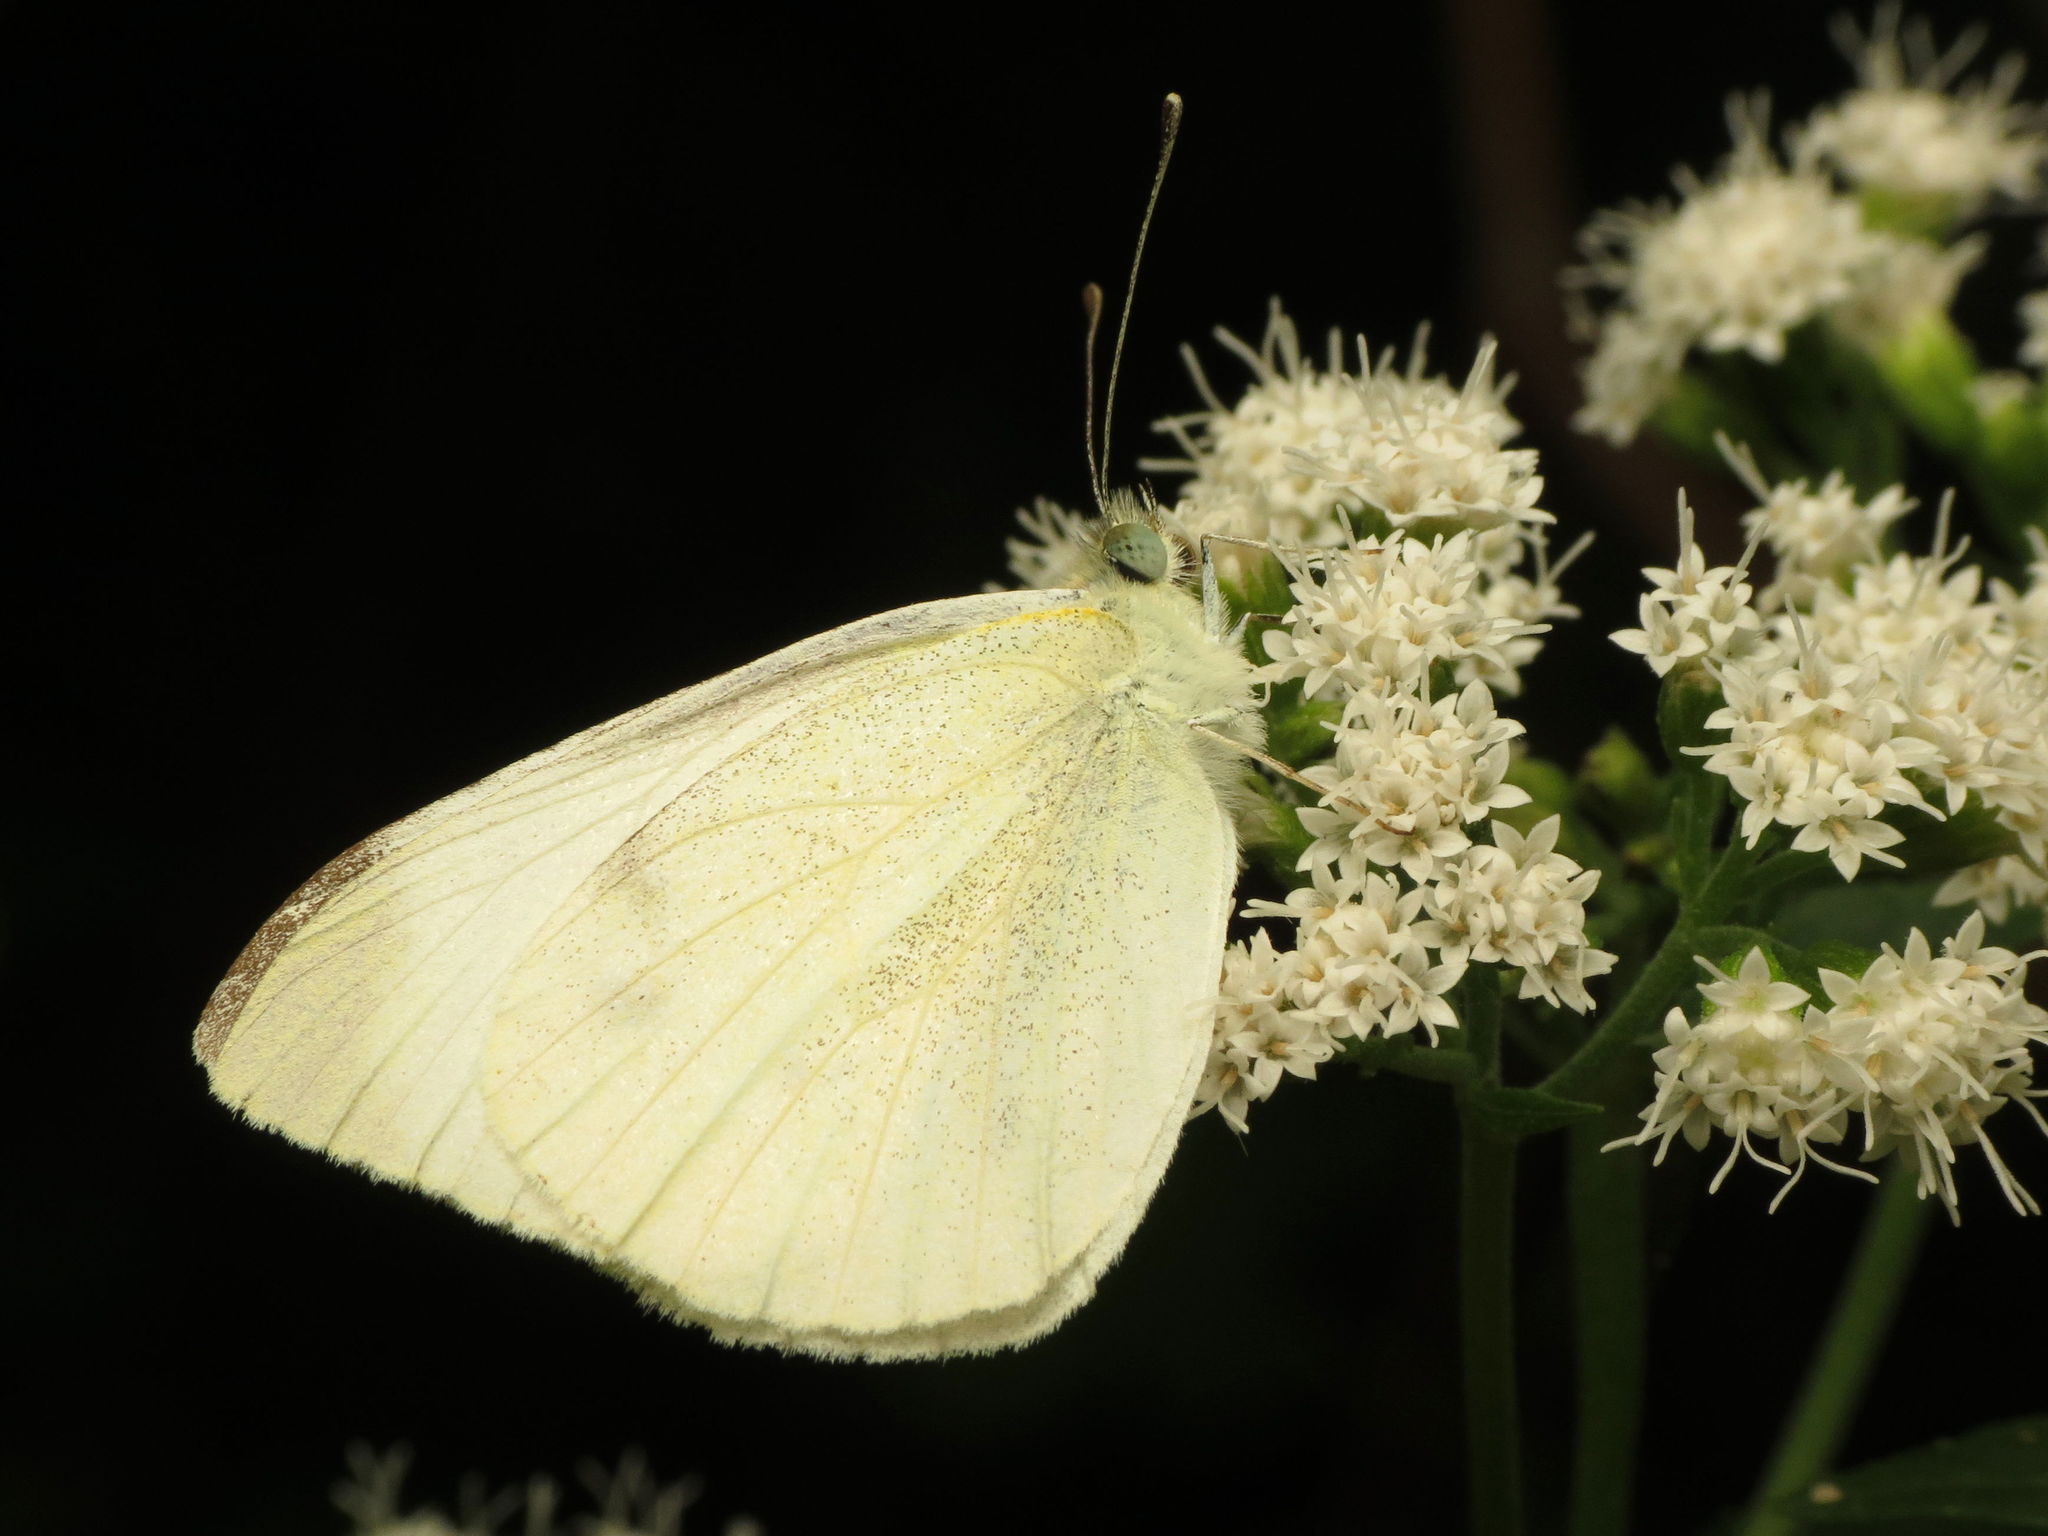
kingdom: Animalia
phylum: Arthropoda
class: Insecta
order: Lepidoptera
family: Pieridae
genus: Pieris
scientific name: Pieris rapae
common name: Small white
